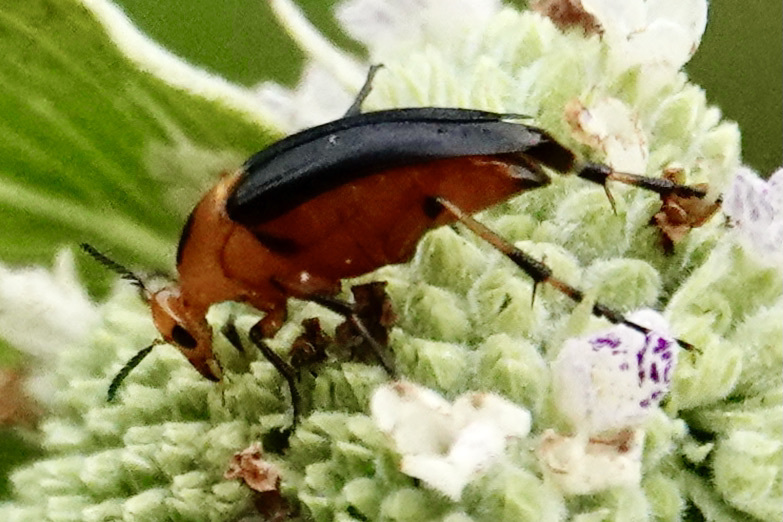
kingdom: Animalia
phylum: Arthropoda
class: Insecta
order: Coleoptera
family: Ripiphoridae
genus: Macrosiagon
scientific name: Macrosiagon limbatum
